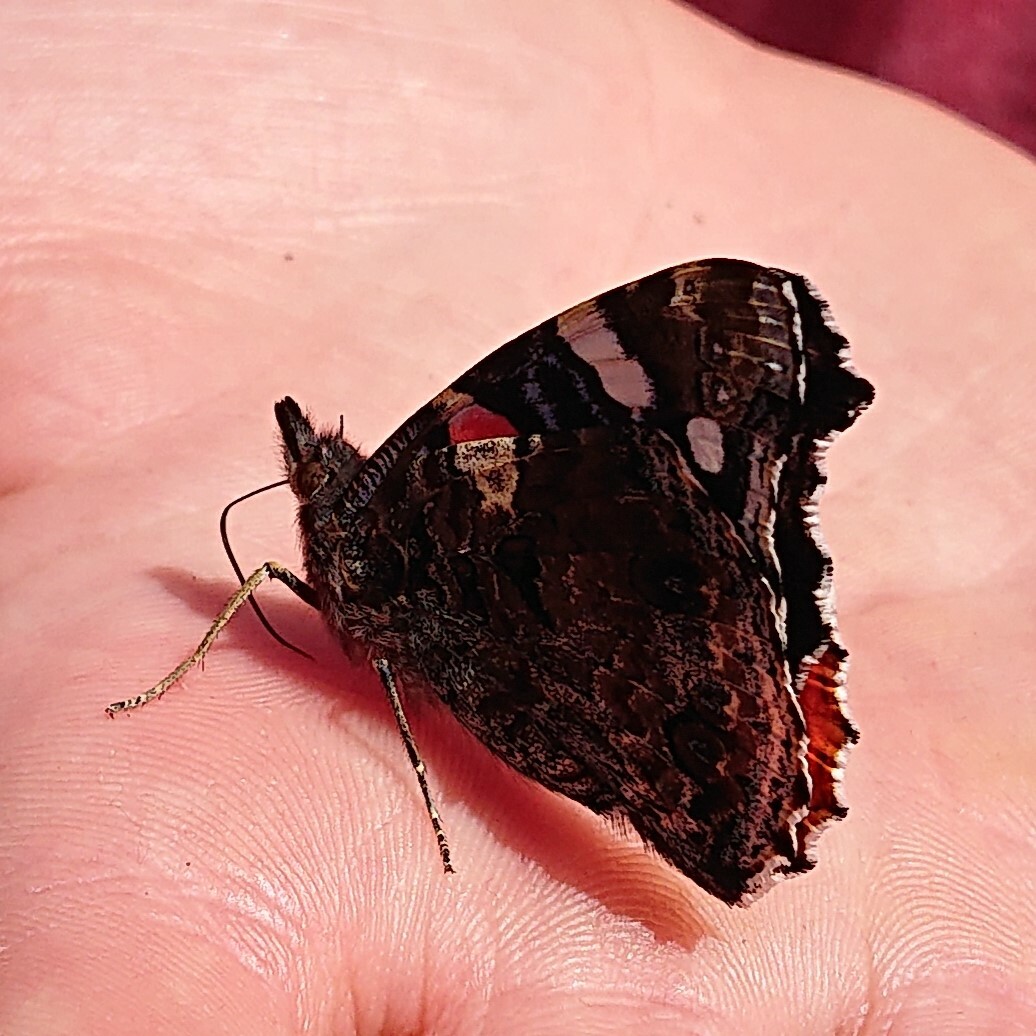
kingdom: Animalia
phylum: Arthropoda
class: Insecta
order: Lepidoptera
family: Nymphalidae
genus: Vanessa
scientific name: Vanessa atalanta
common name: Red admiral
